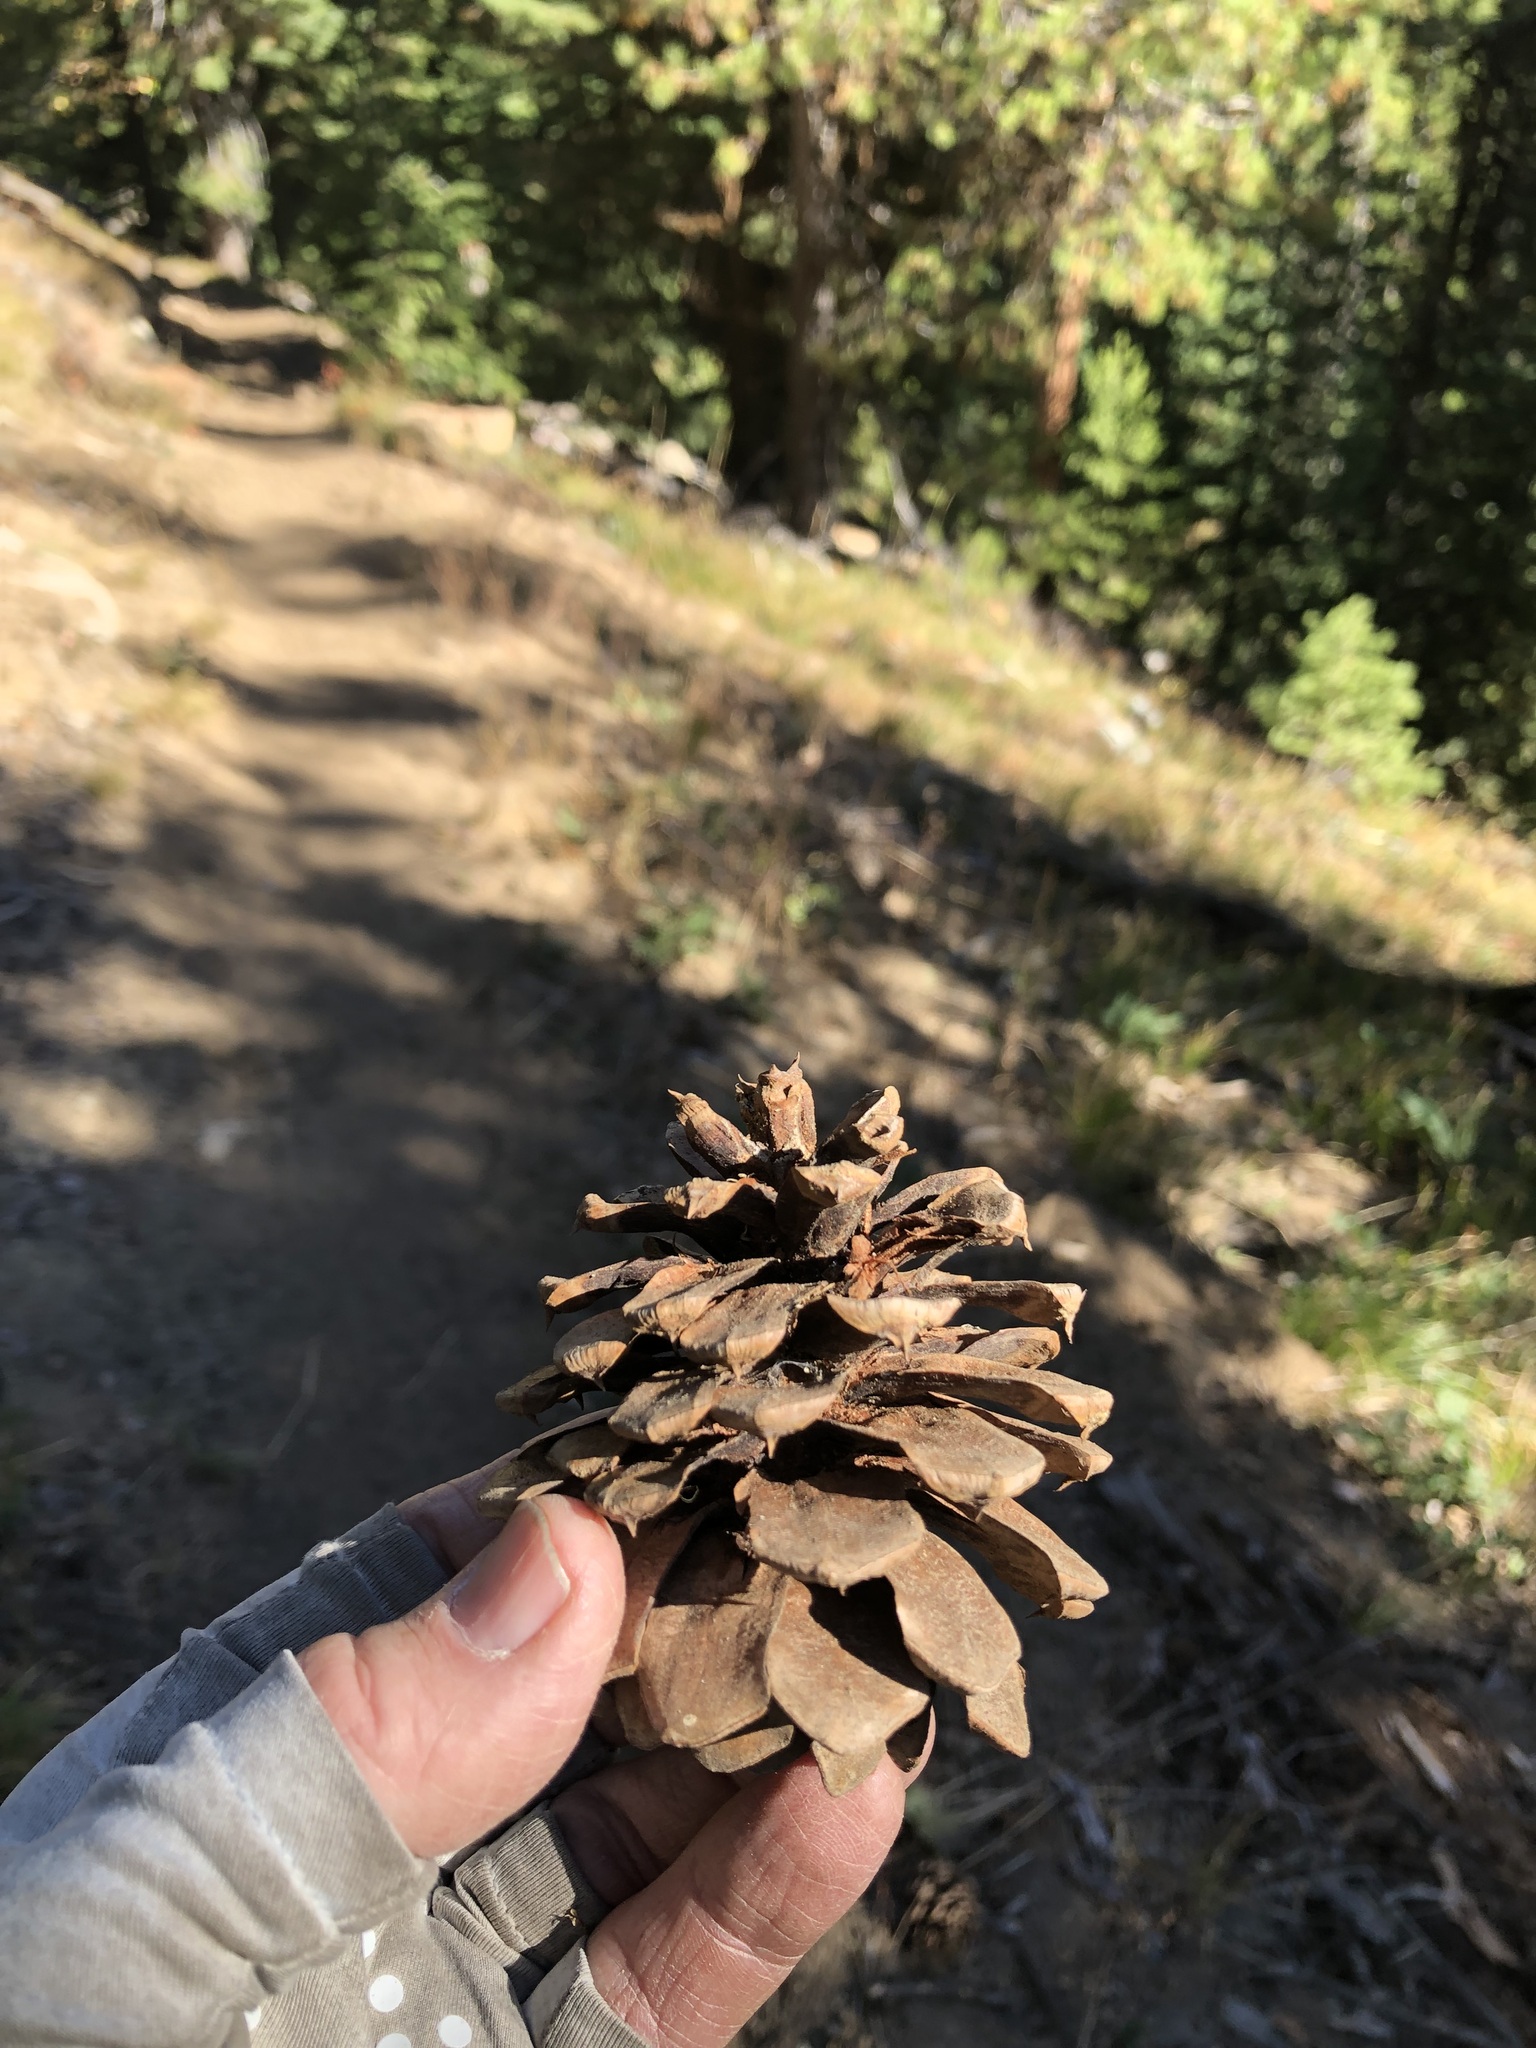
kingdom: Plantae
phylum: Tracheophyta
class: Pinopsida
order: Pinales
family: Pinaceae
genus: Pinus
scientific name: Pinus ponderosa
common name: Western yellow-pine
